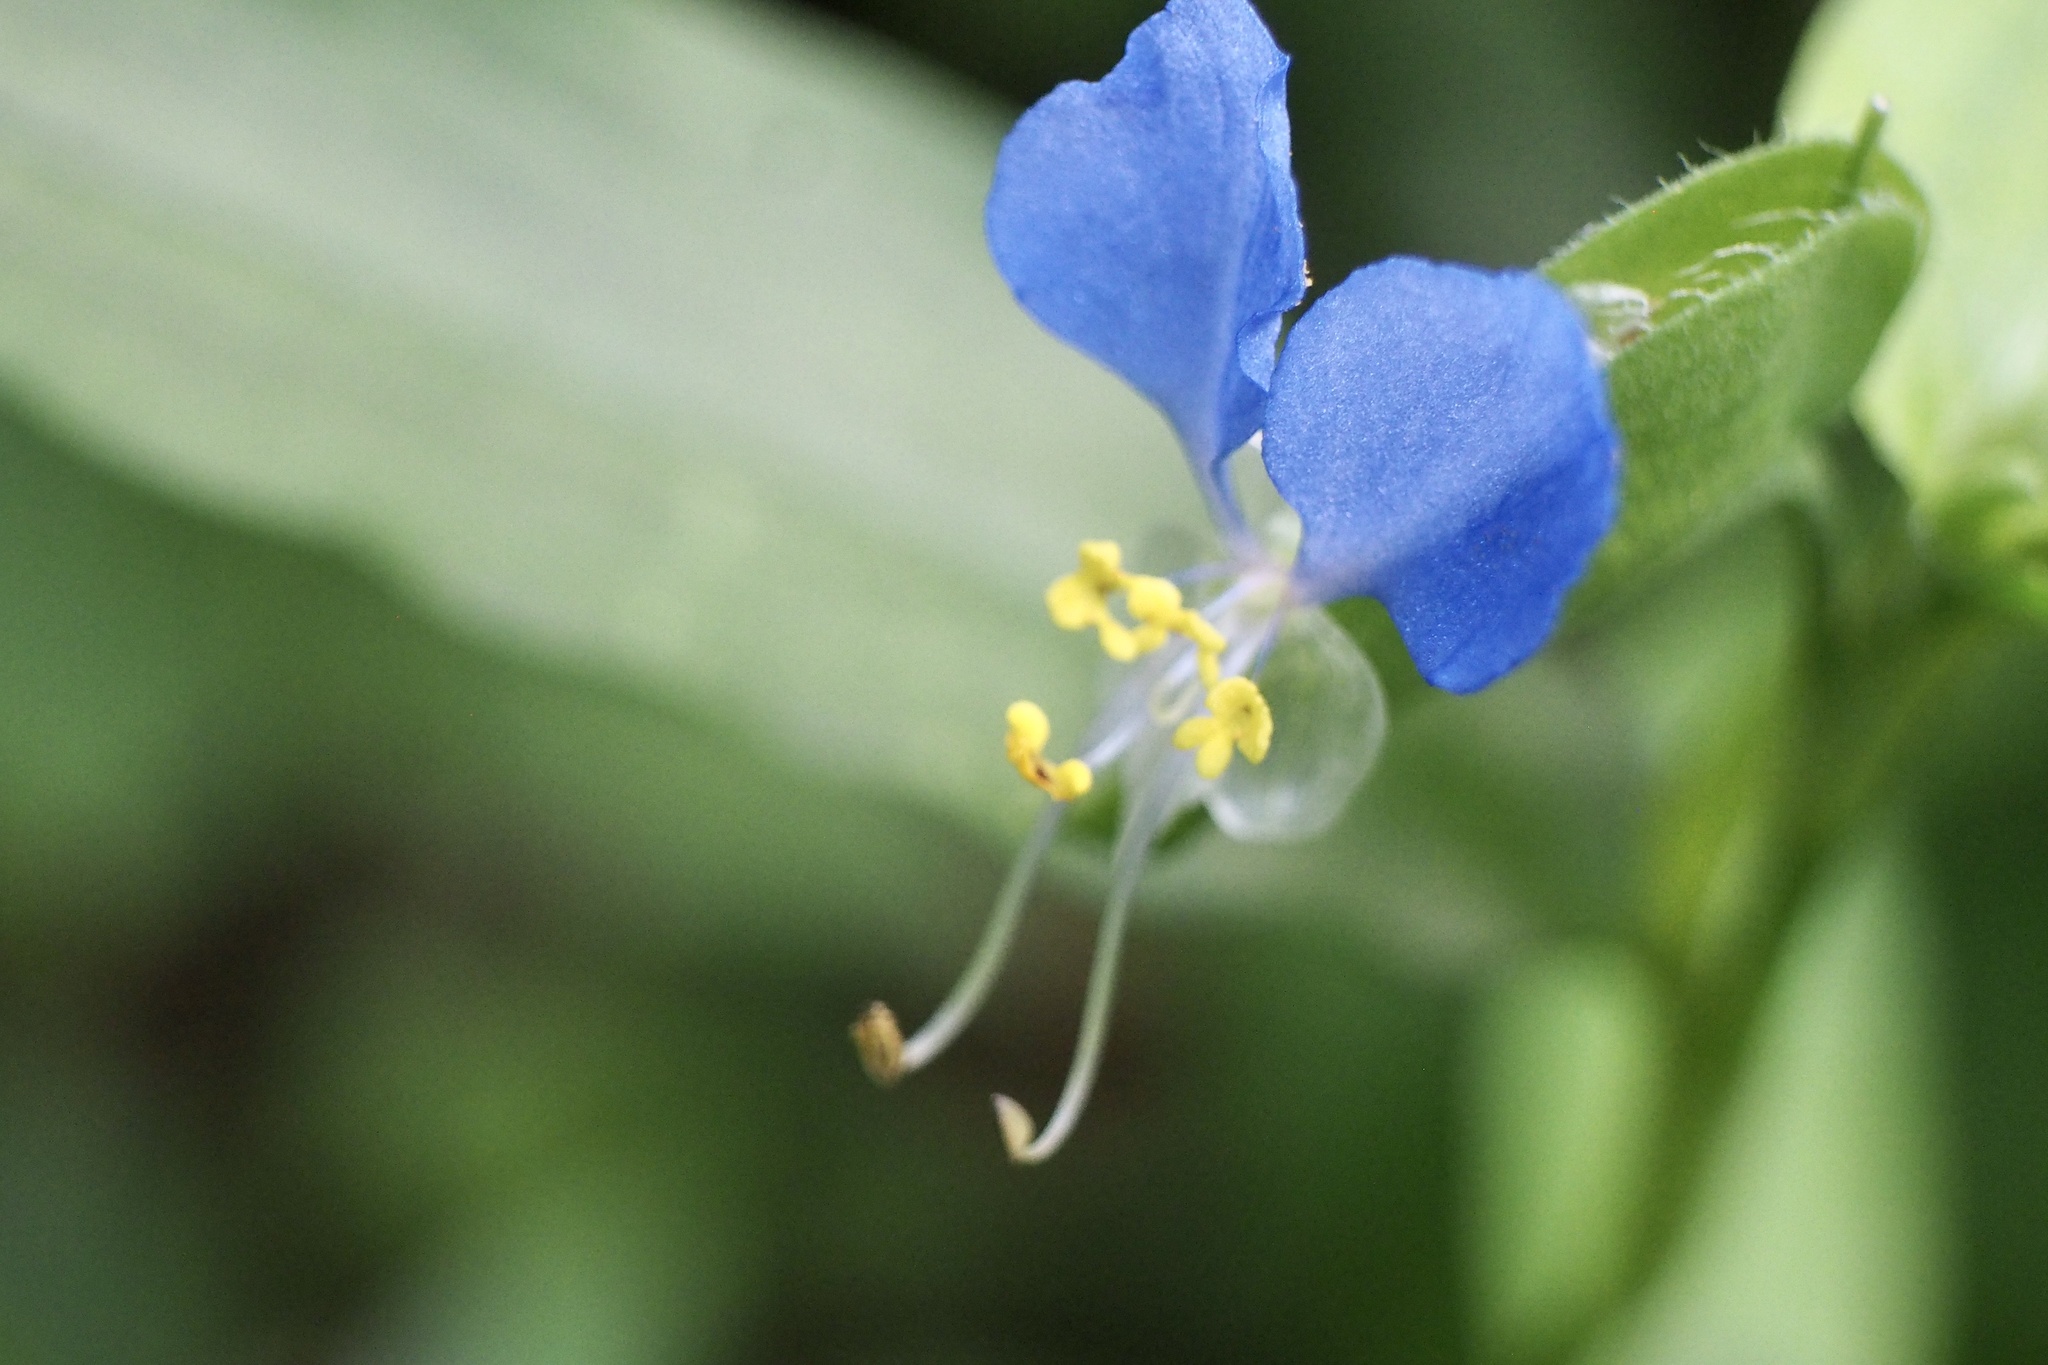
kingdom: Plantae
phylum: Tracheophyta
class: Liliopsida
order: Commelinales
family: Commelinaceae
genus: Commelina
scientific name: Commelina communis
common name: Asiatic dayflower
